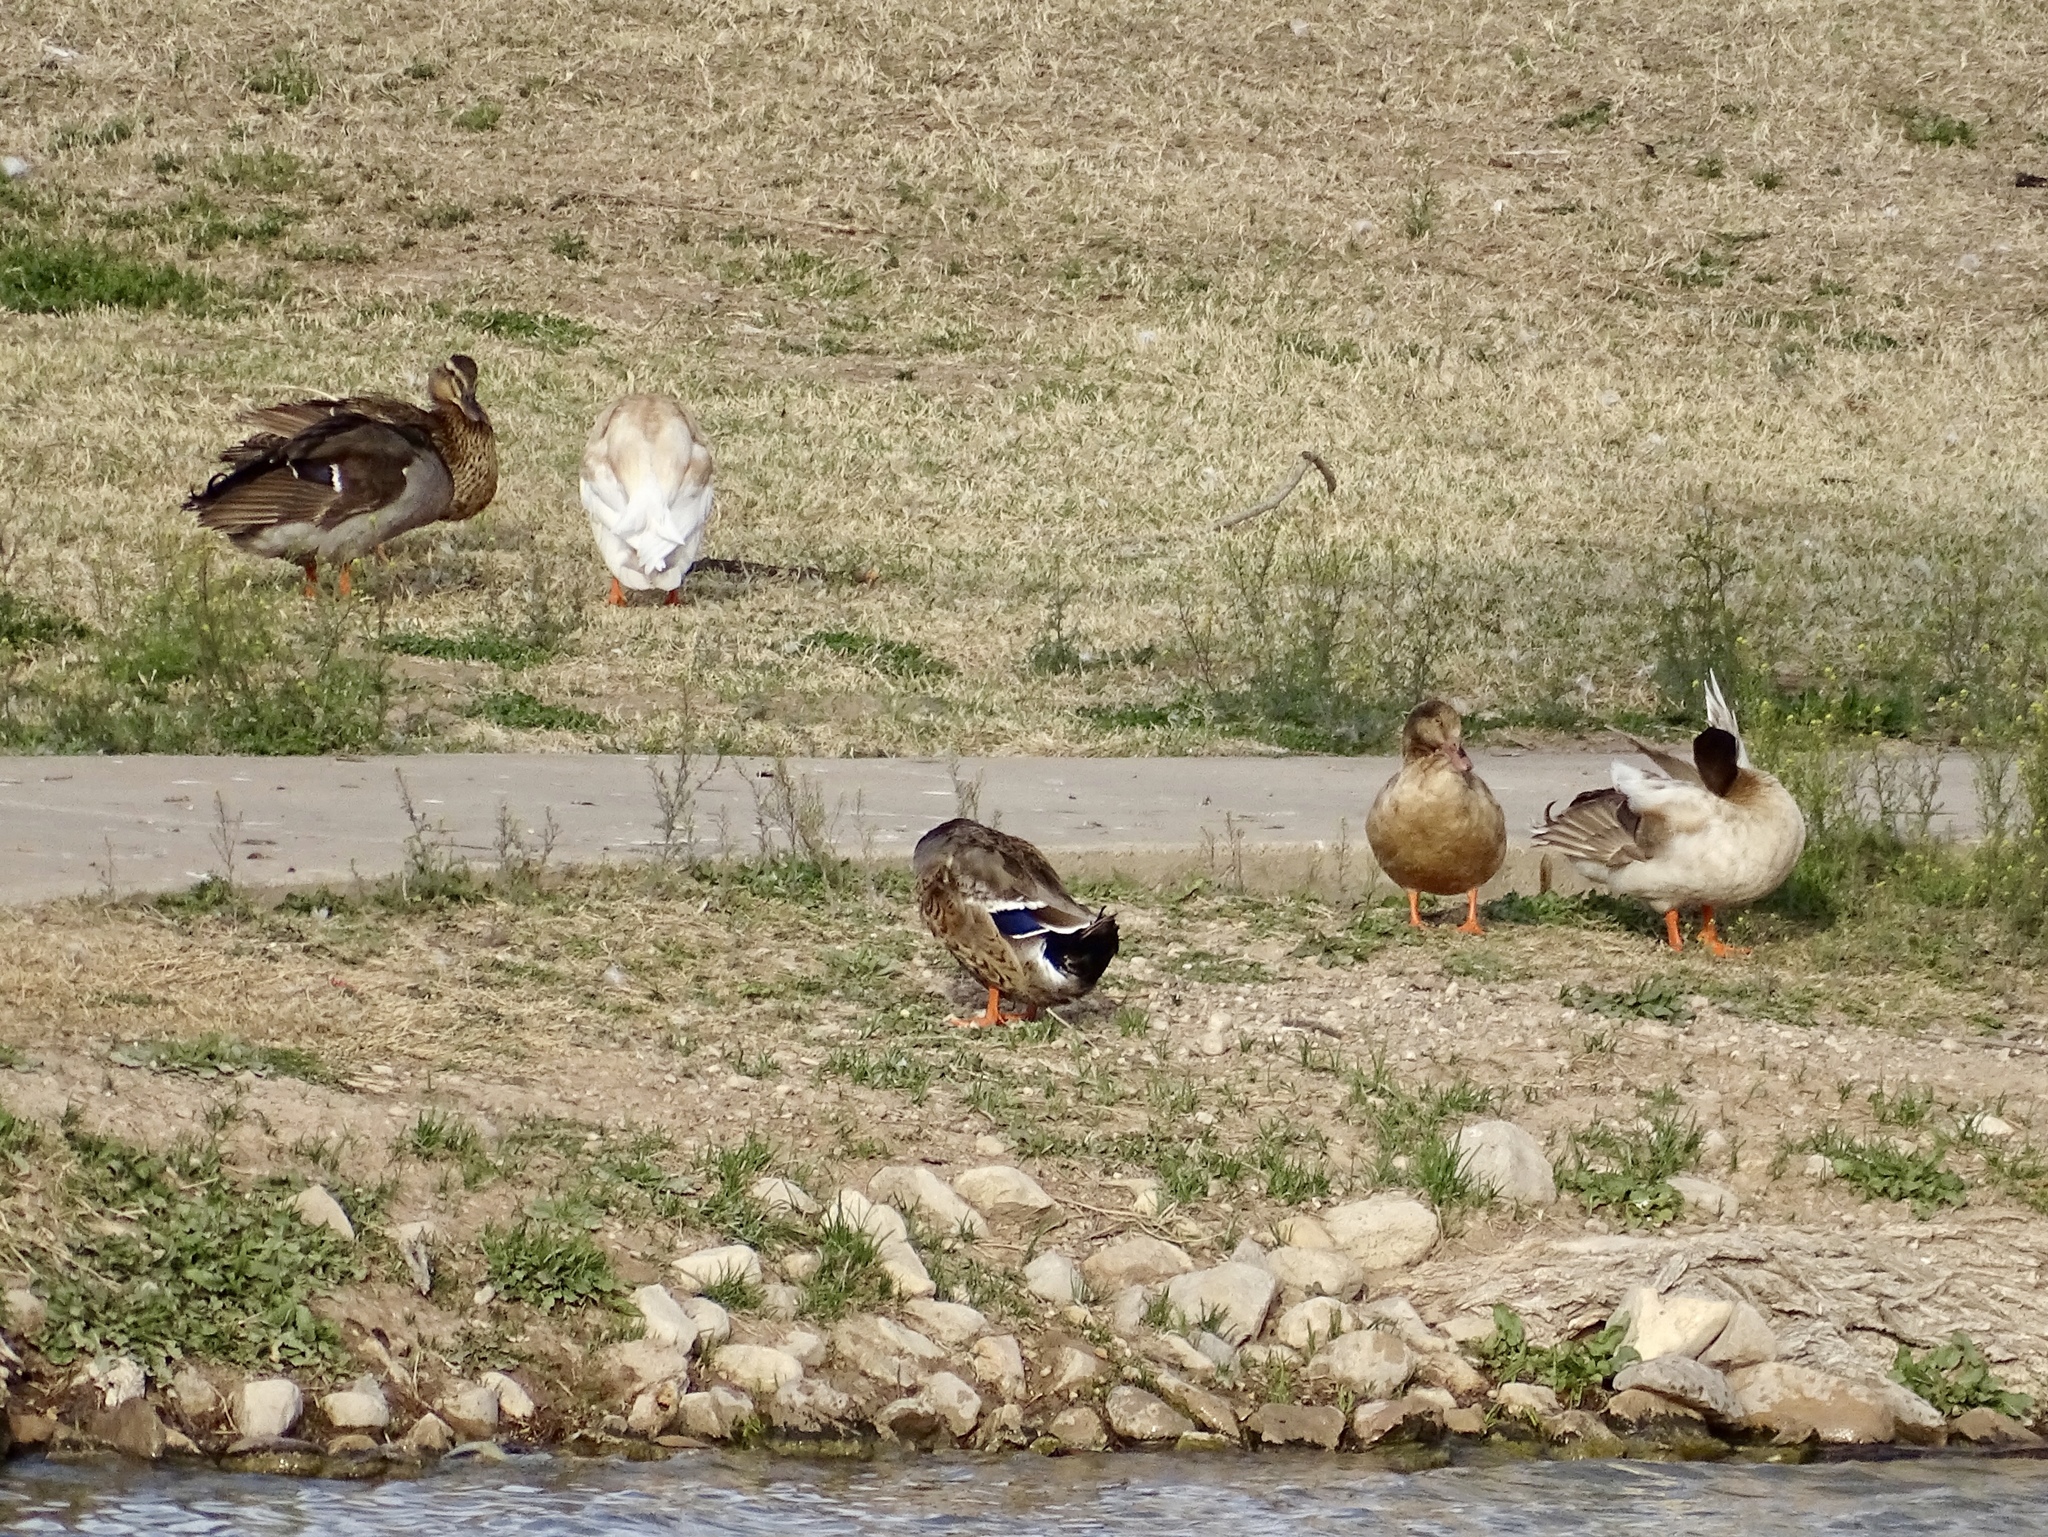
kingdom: Animalia
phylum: Chordata
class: Aves
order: Anseriformes
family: Anatidae
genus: Anas
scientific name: Anas platyrhynchos
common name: Mallard
